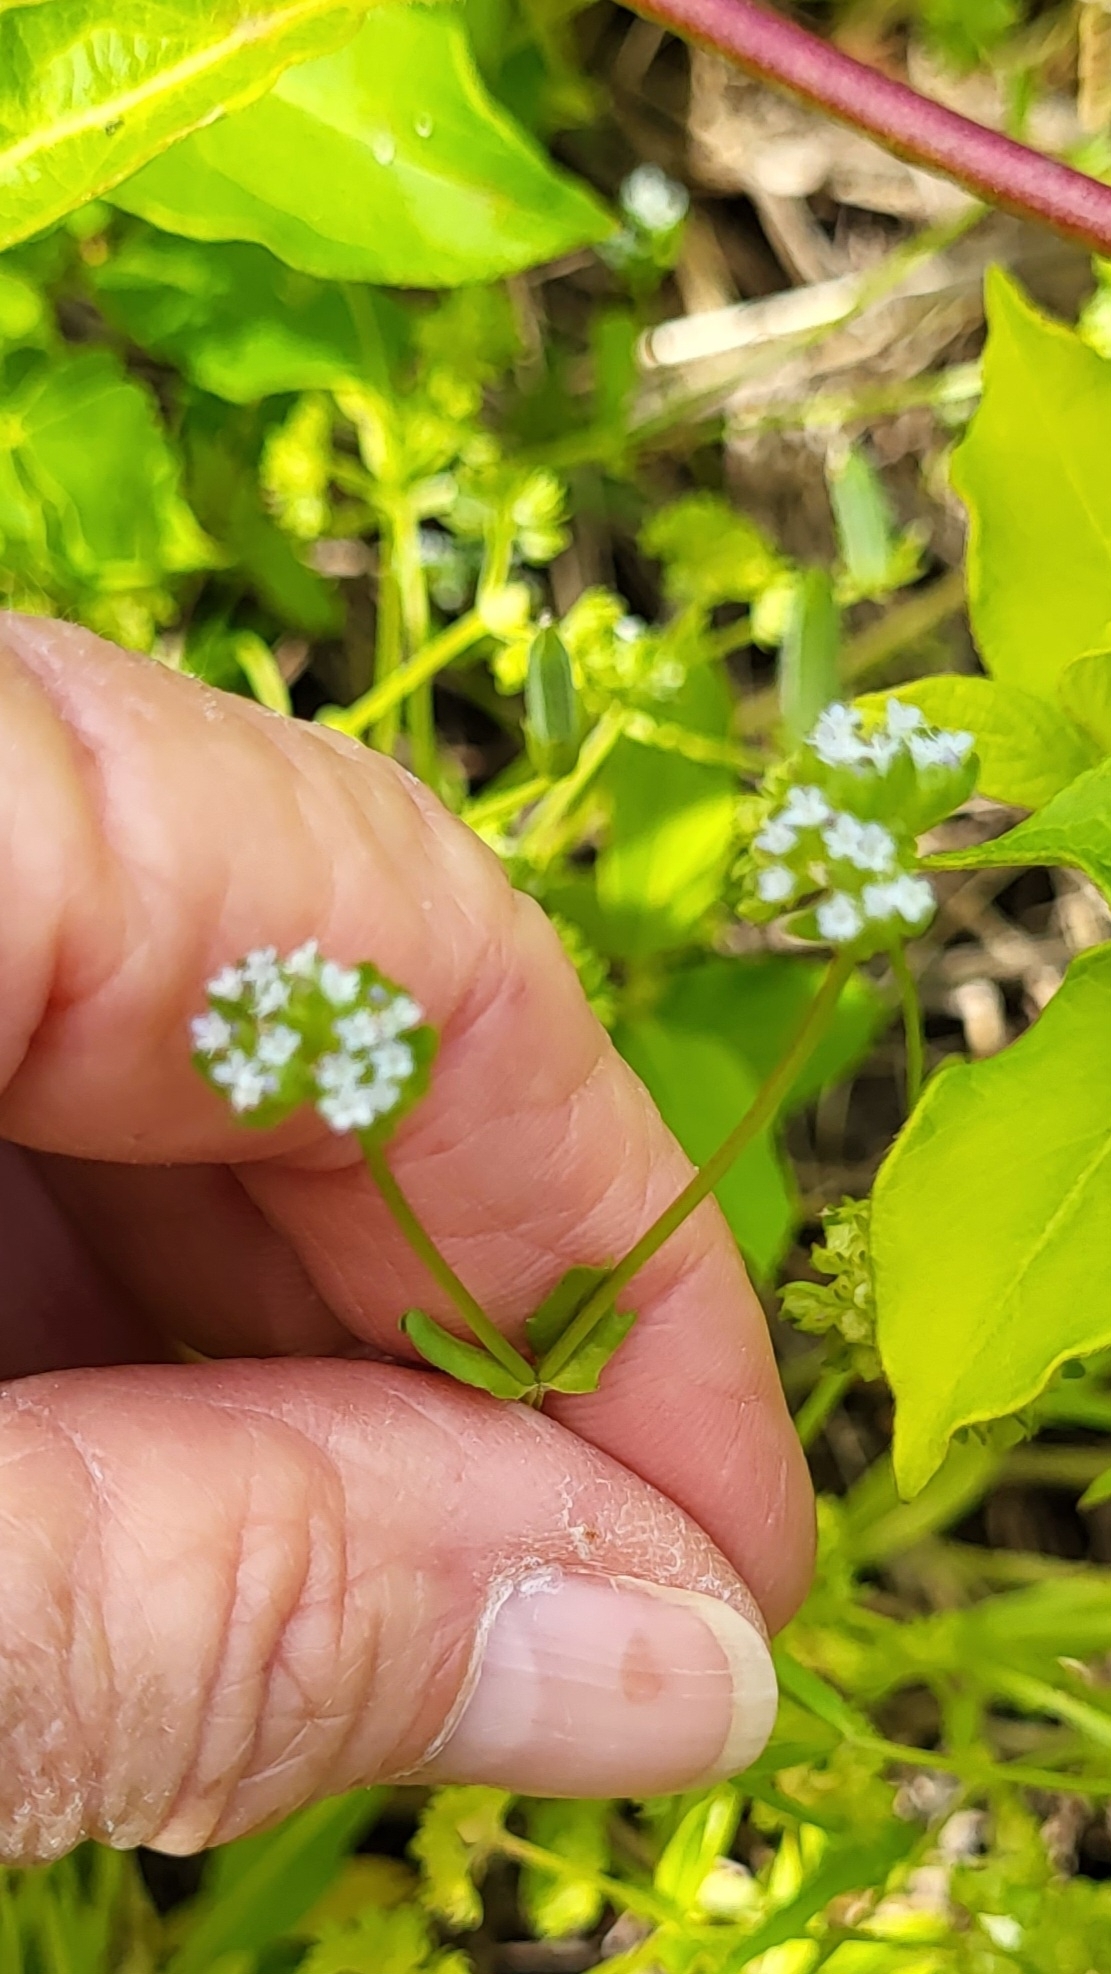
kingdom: Plantae
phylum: Tracheophyta
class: Magnoliopsida
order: Dipsacales
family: Caprifoliaceae
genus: Valerianella
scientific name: Valerianella locusta
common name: Common cornsalad
